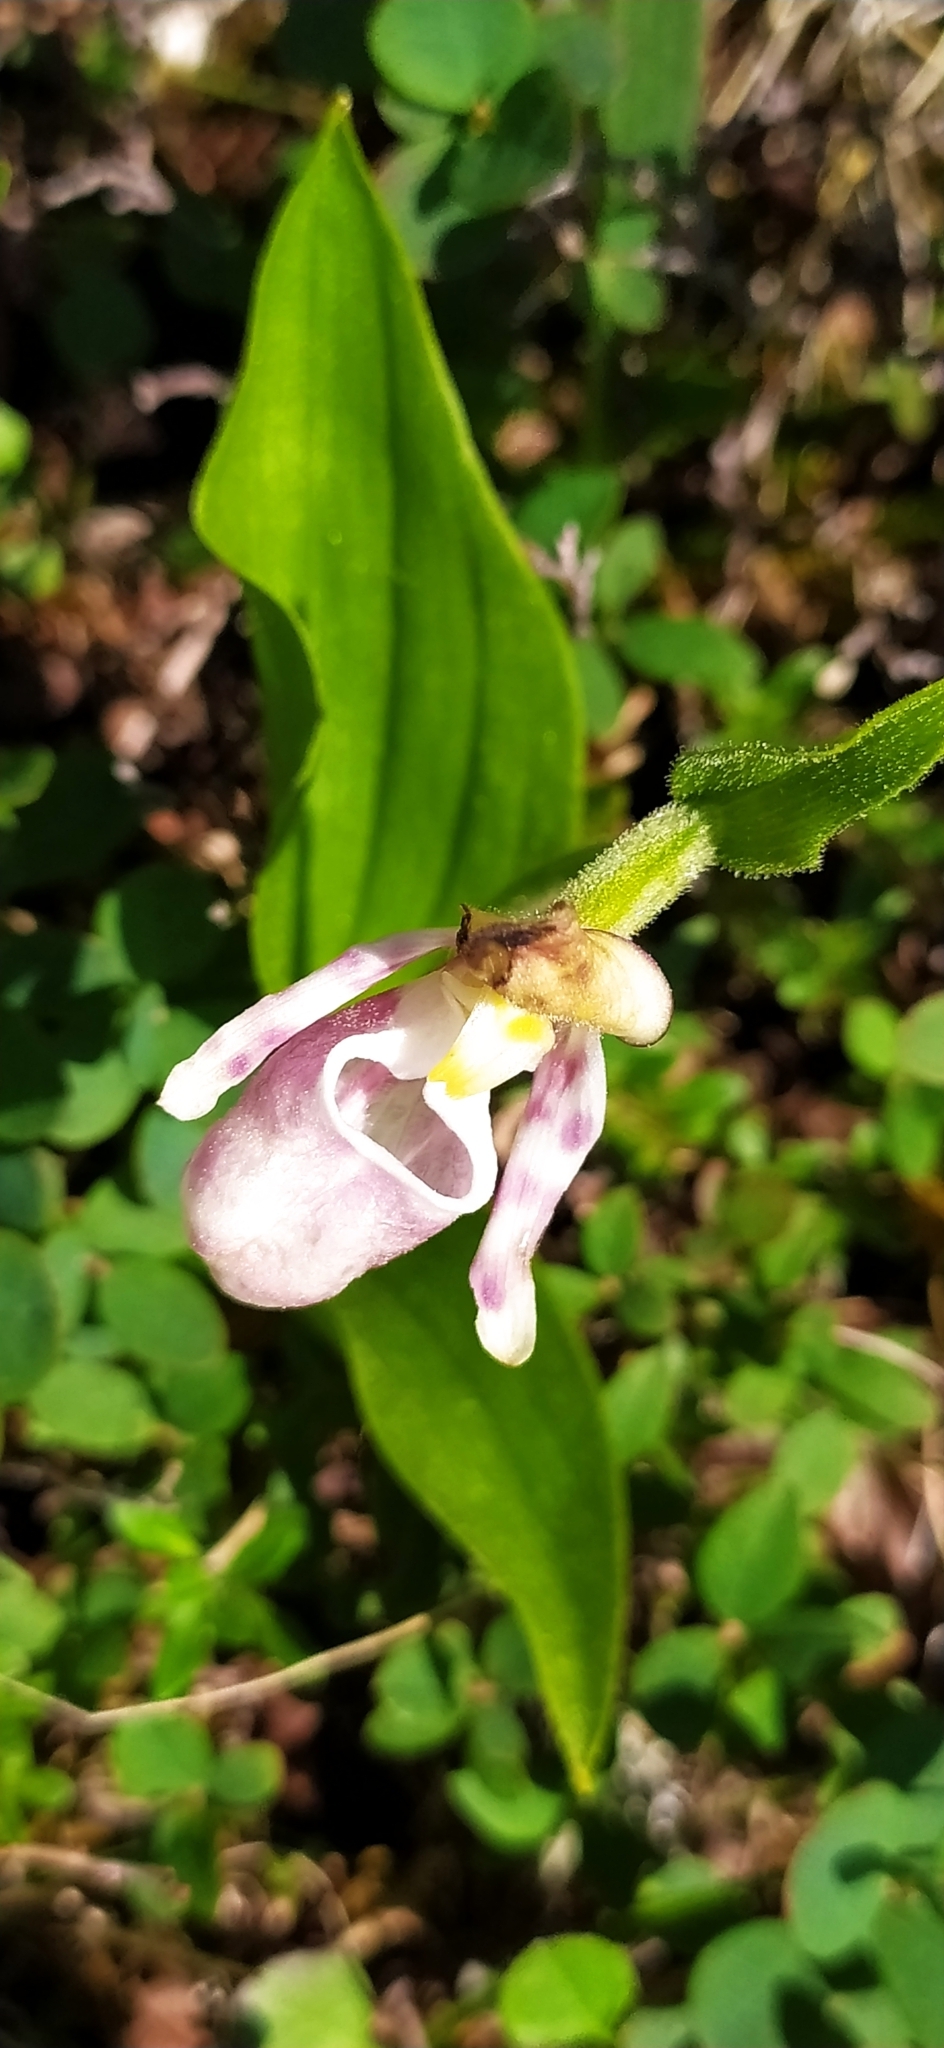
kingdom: Plantae
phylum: Tracheophyta
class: Liliopsida
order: Asparagales
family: Orchidaceae
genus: Cypripedium
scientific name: Cypripedium guttatum
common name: Pink lady slipper
